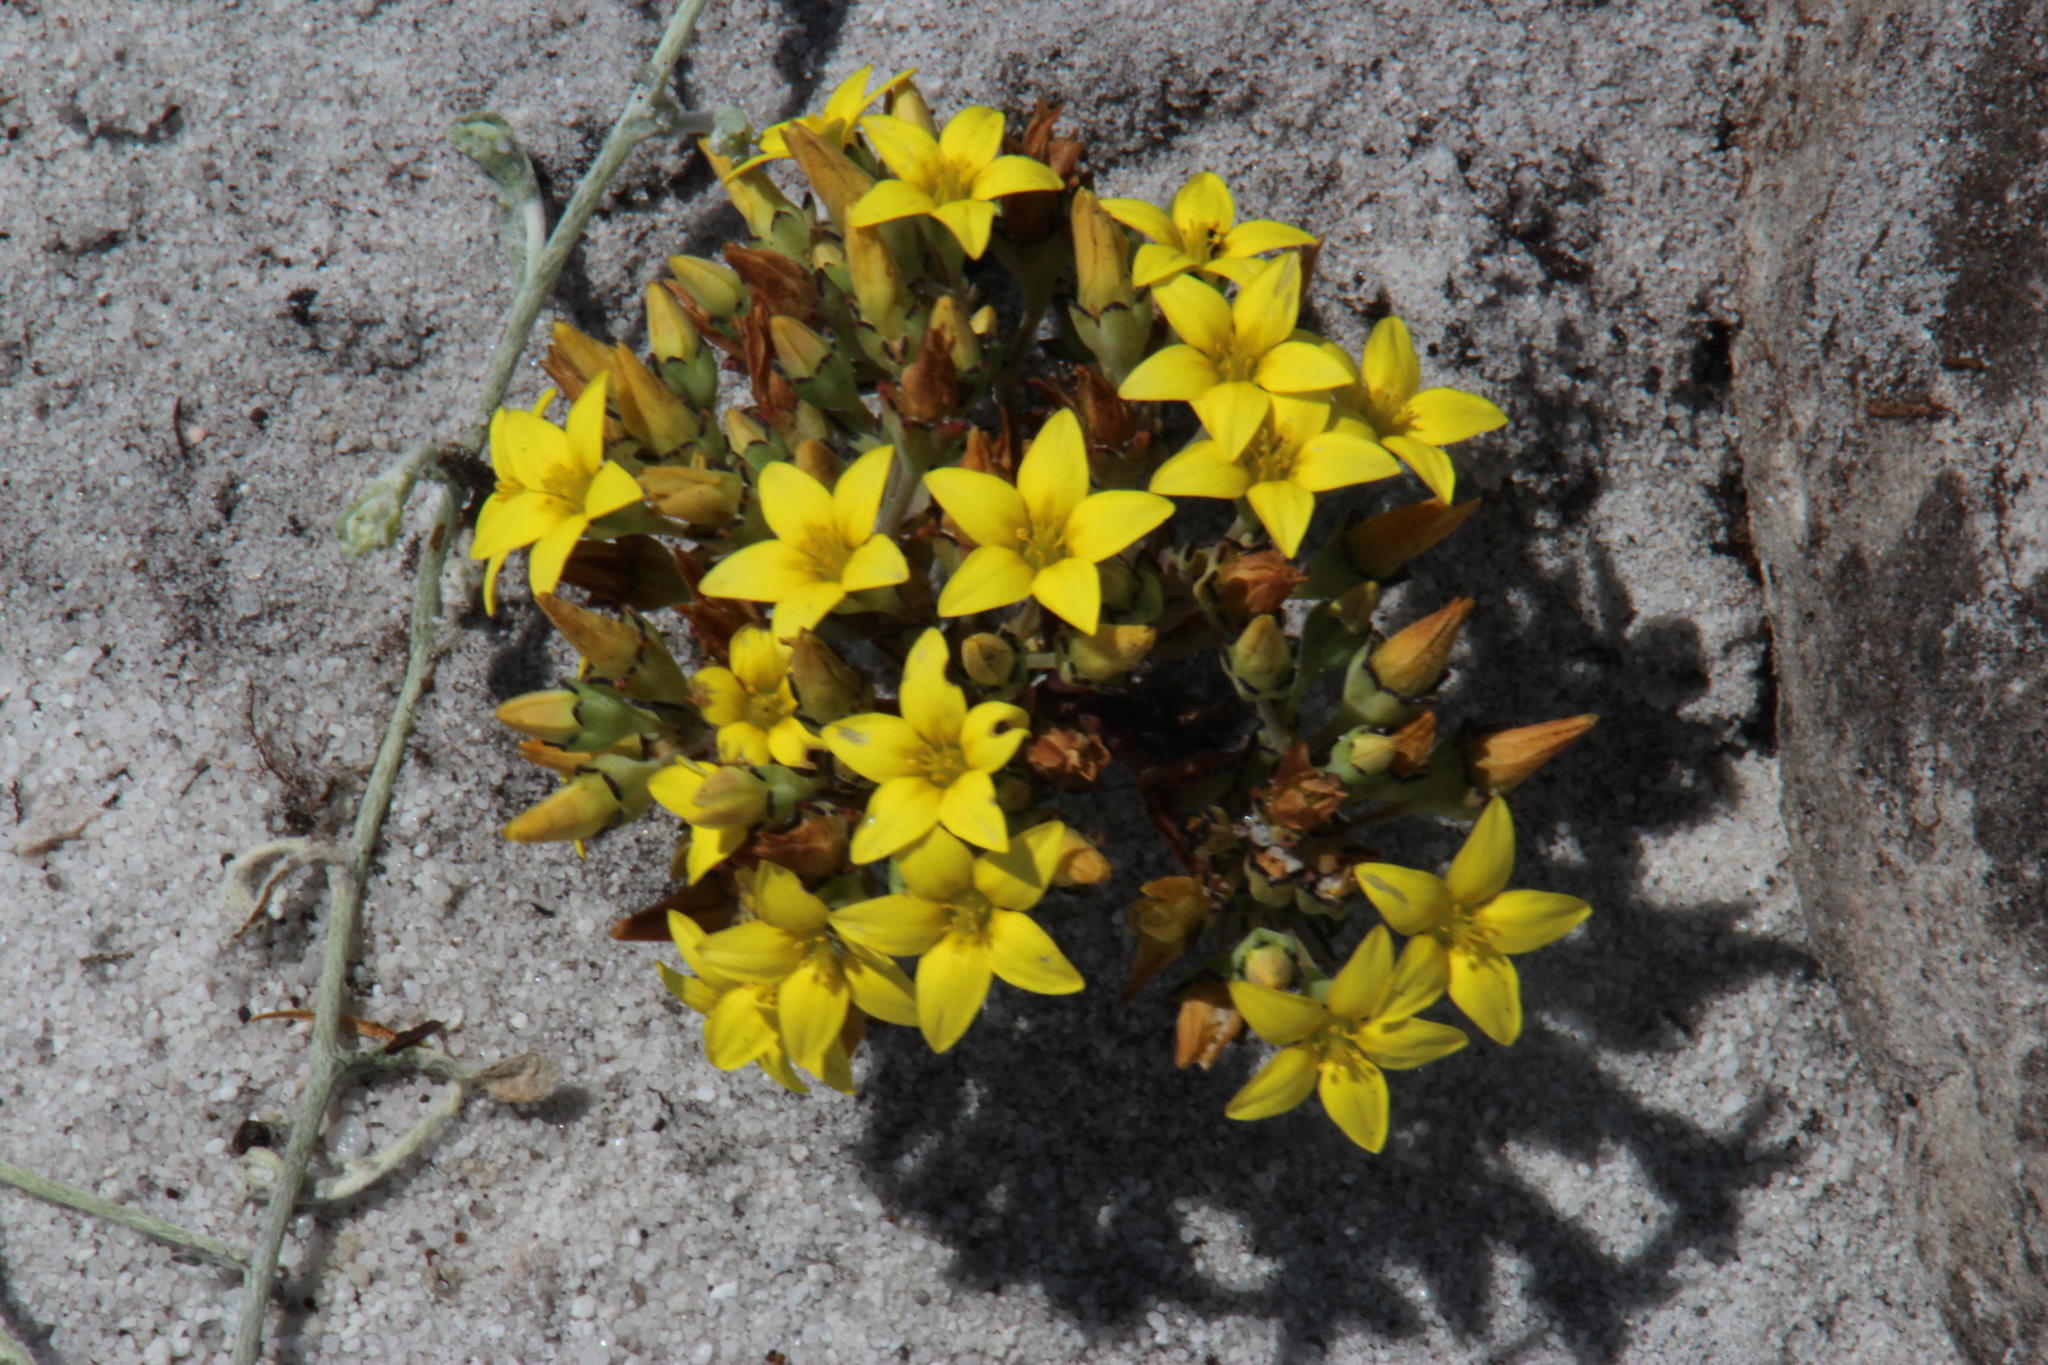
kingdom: Plantae
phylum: Tracheophyta
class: Magnoliopsida
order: Saxifragales
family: Crassulaceae
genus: Crassula
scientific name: Crassula dichotoma
